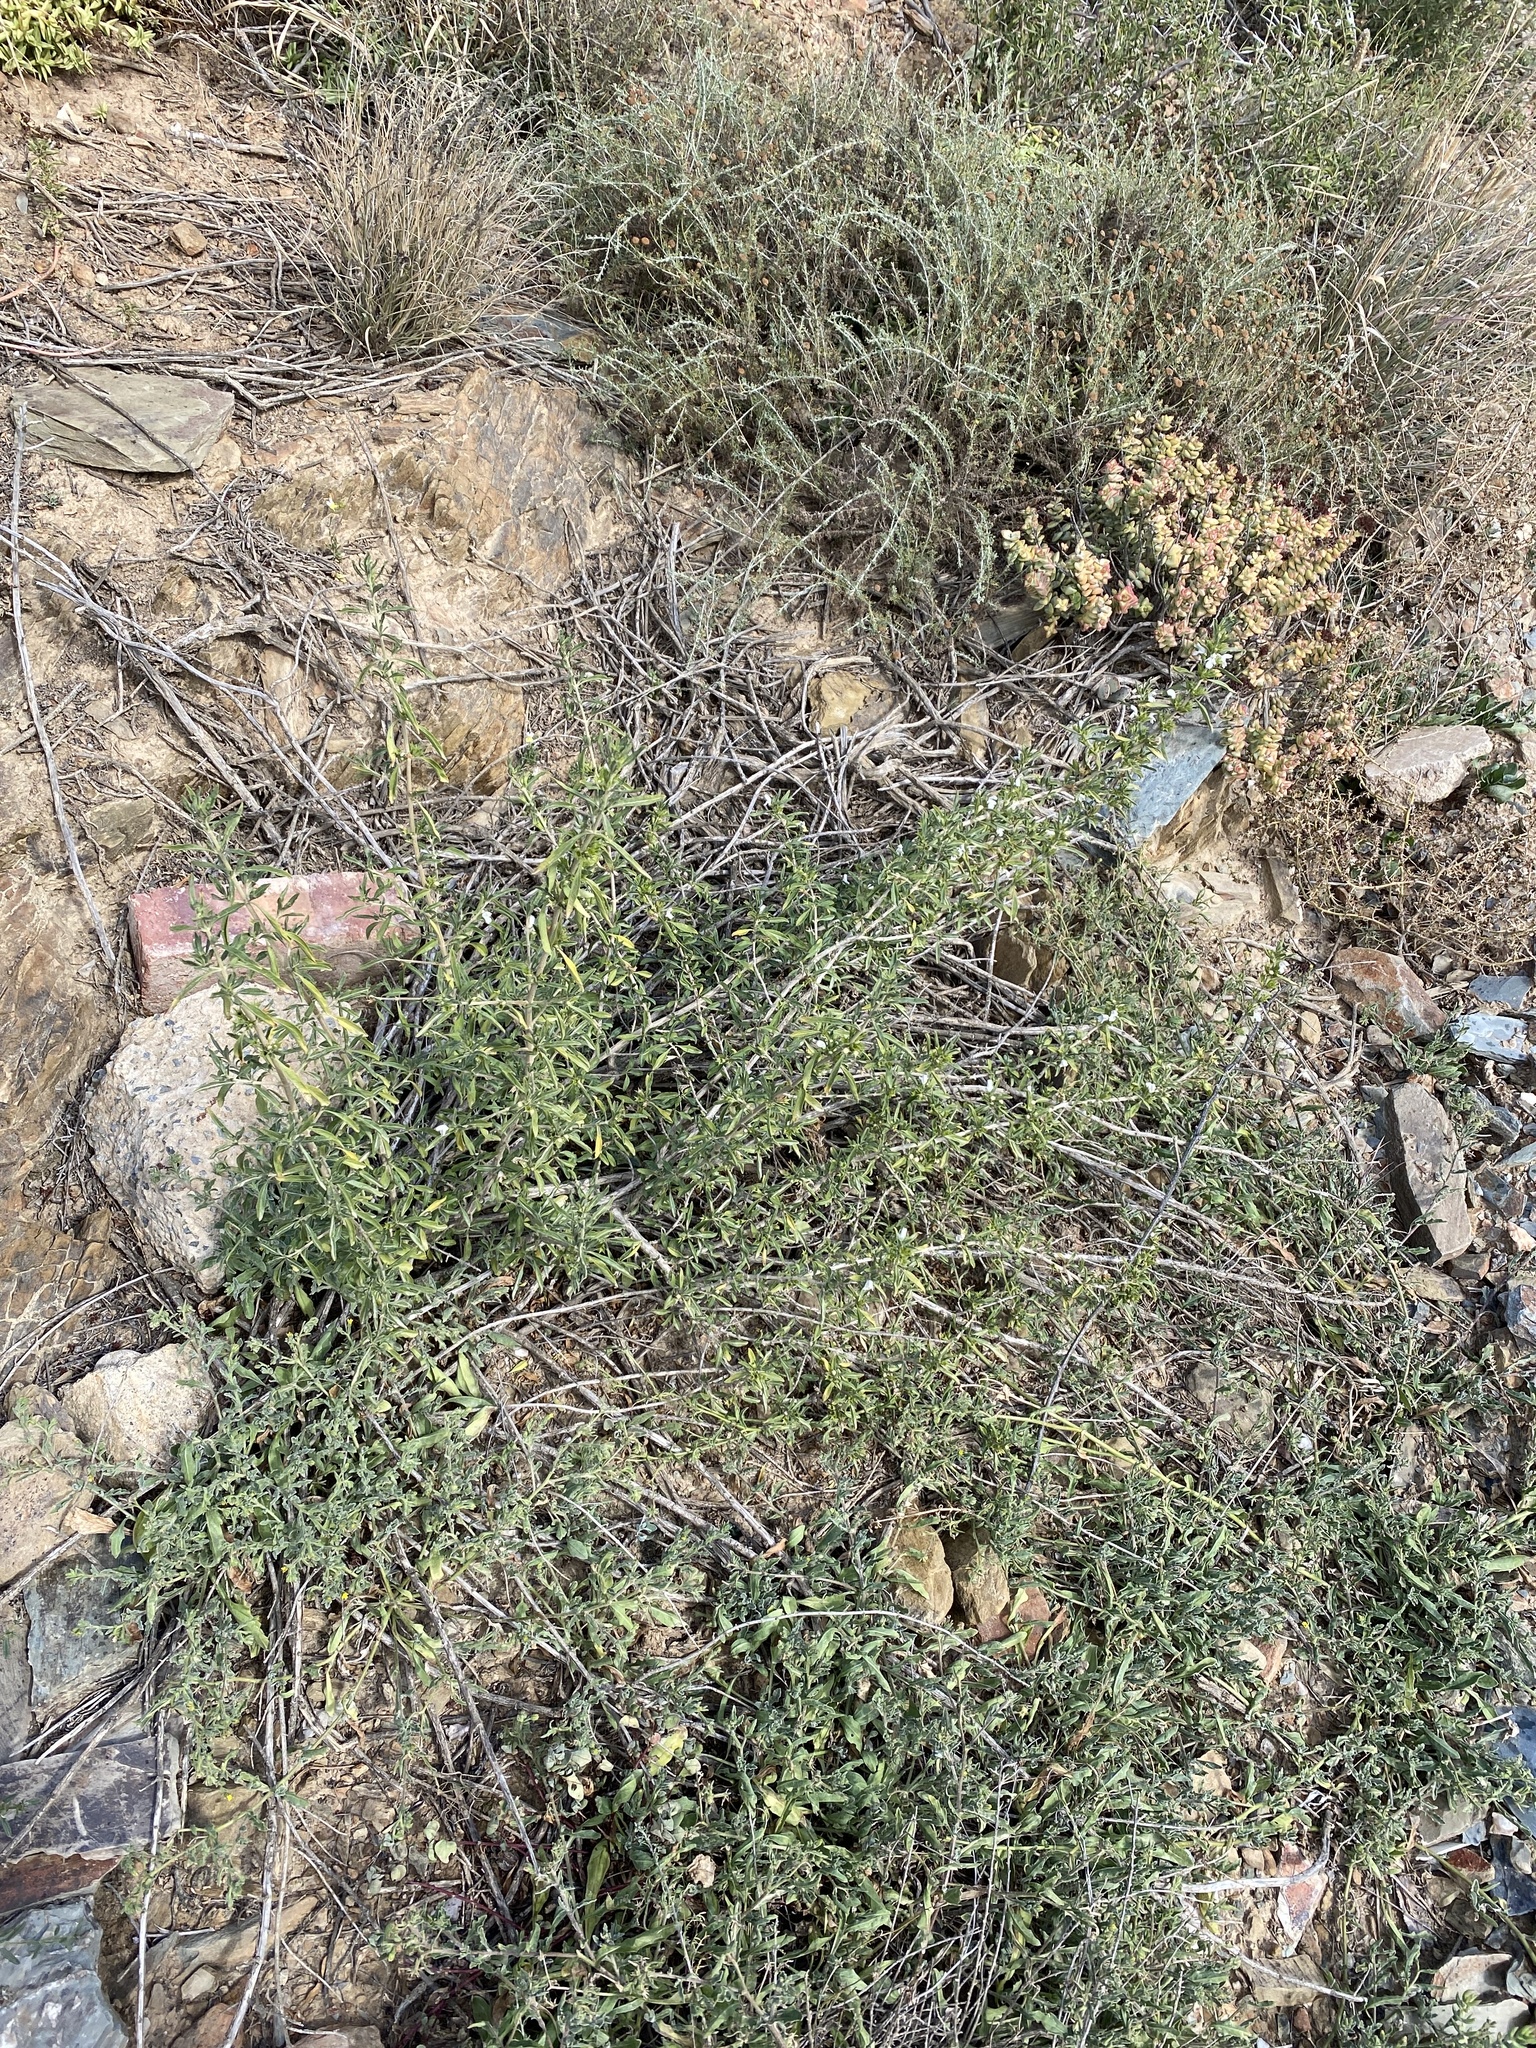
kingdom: Plantae
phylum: Tracheophyta
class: Magnoliopsida
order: Lamiales
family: Lamiaceae
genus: Leucas
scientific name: Leucas capensis
